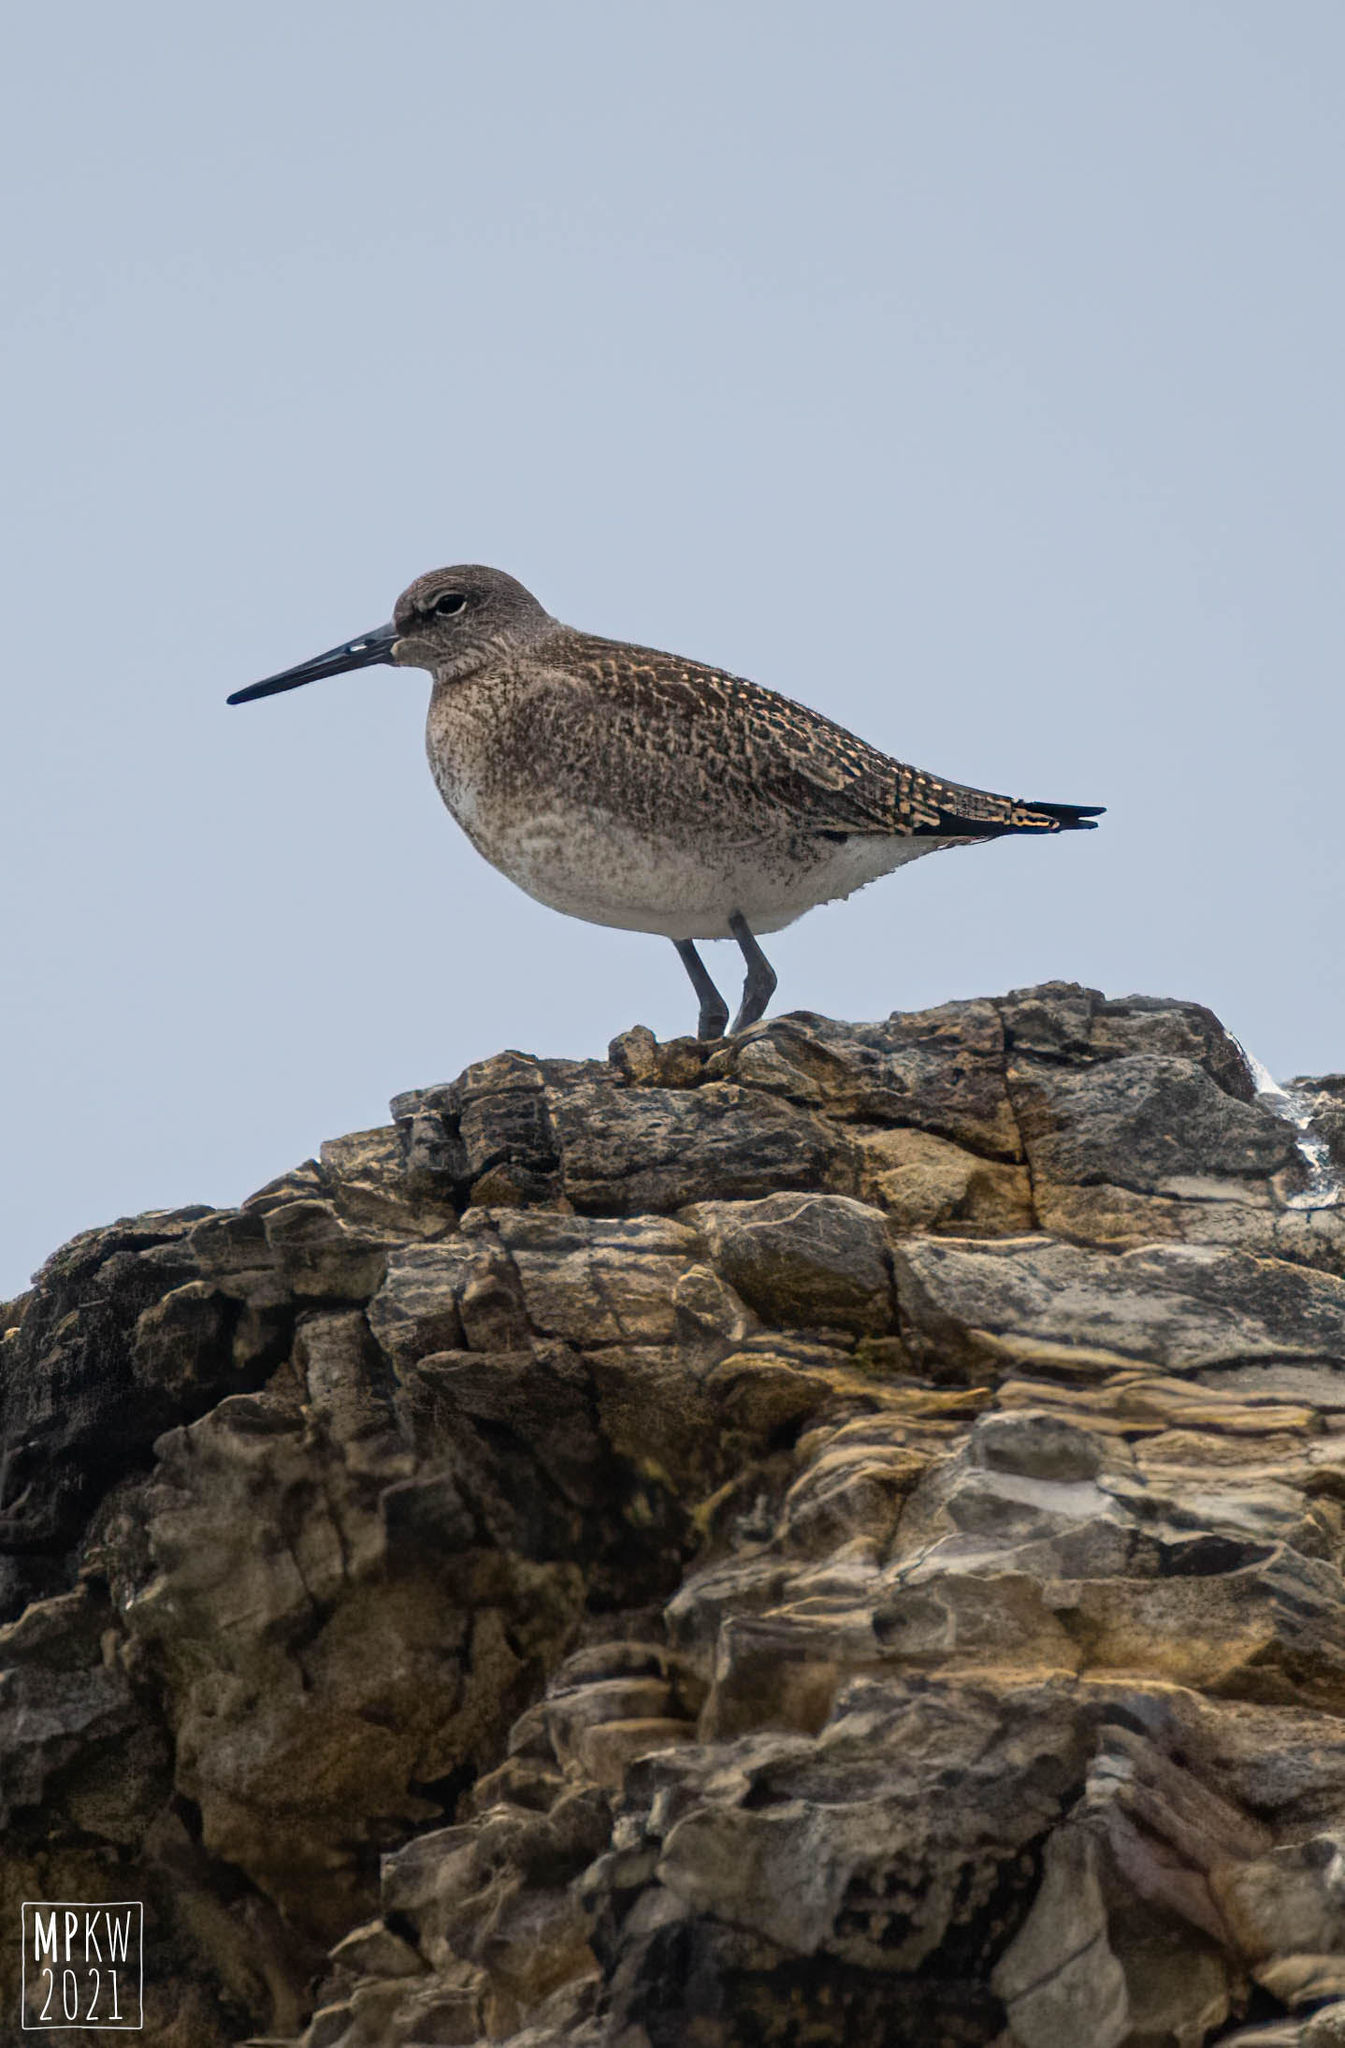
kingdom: Animalia
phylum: Chordata
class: Aves
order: Charadriiformes
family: Scolopacidae
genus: Tringa
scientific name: Tringa incana
